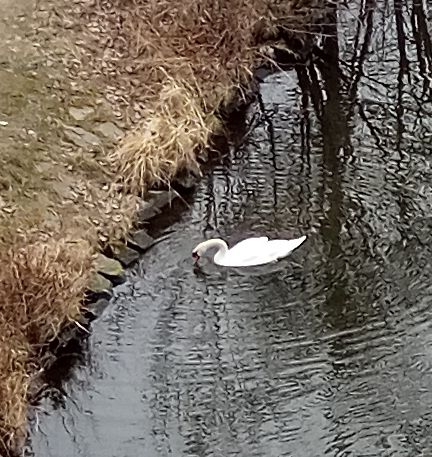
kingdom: Animalia
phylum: Chordata
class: Aves
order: Anseriformes
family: Anatidae
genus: Cygnus
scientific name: Cygnus olor
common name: Mute swan
